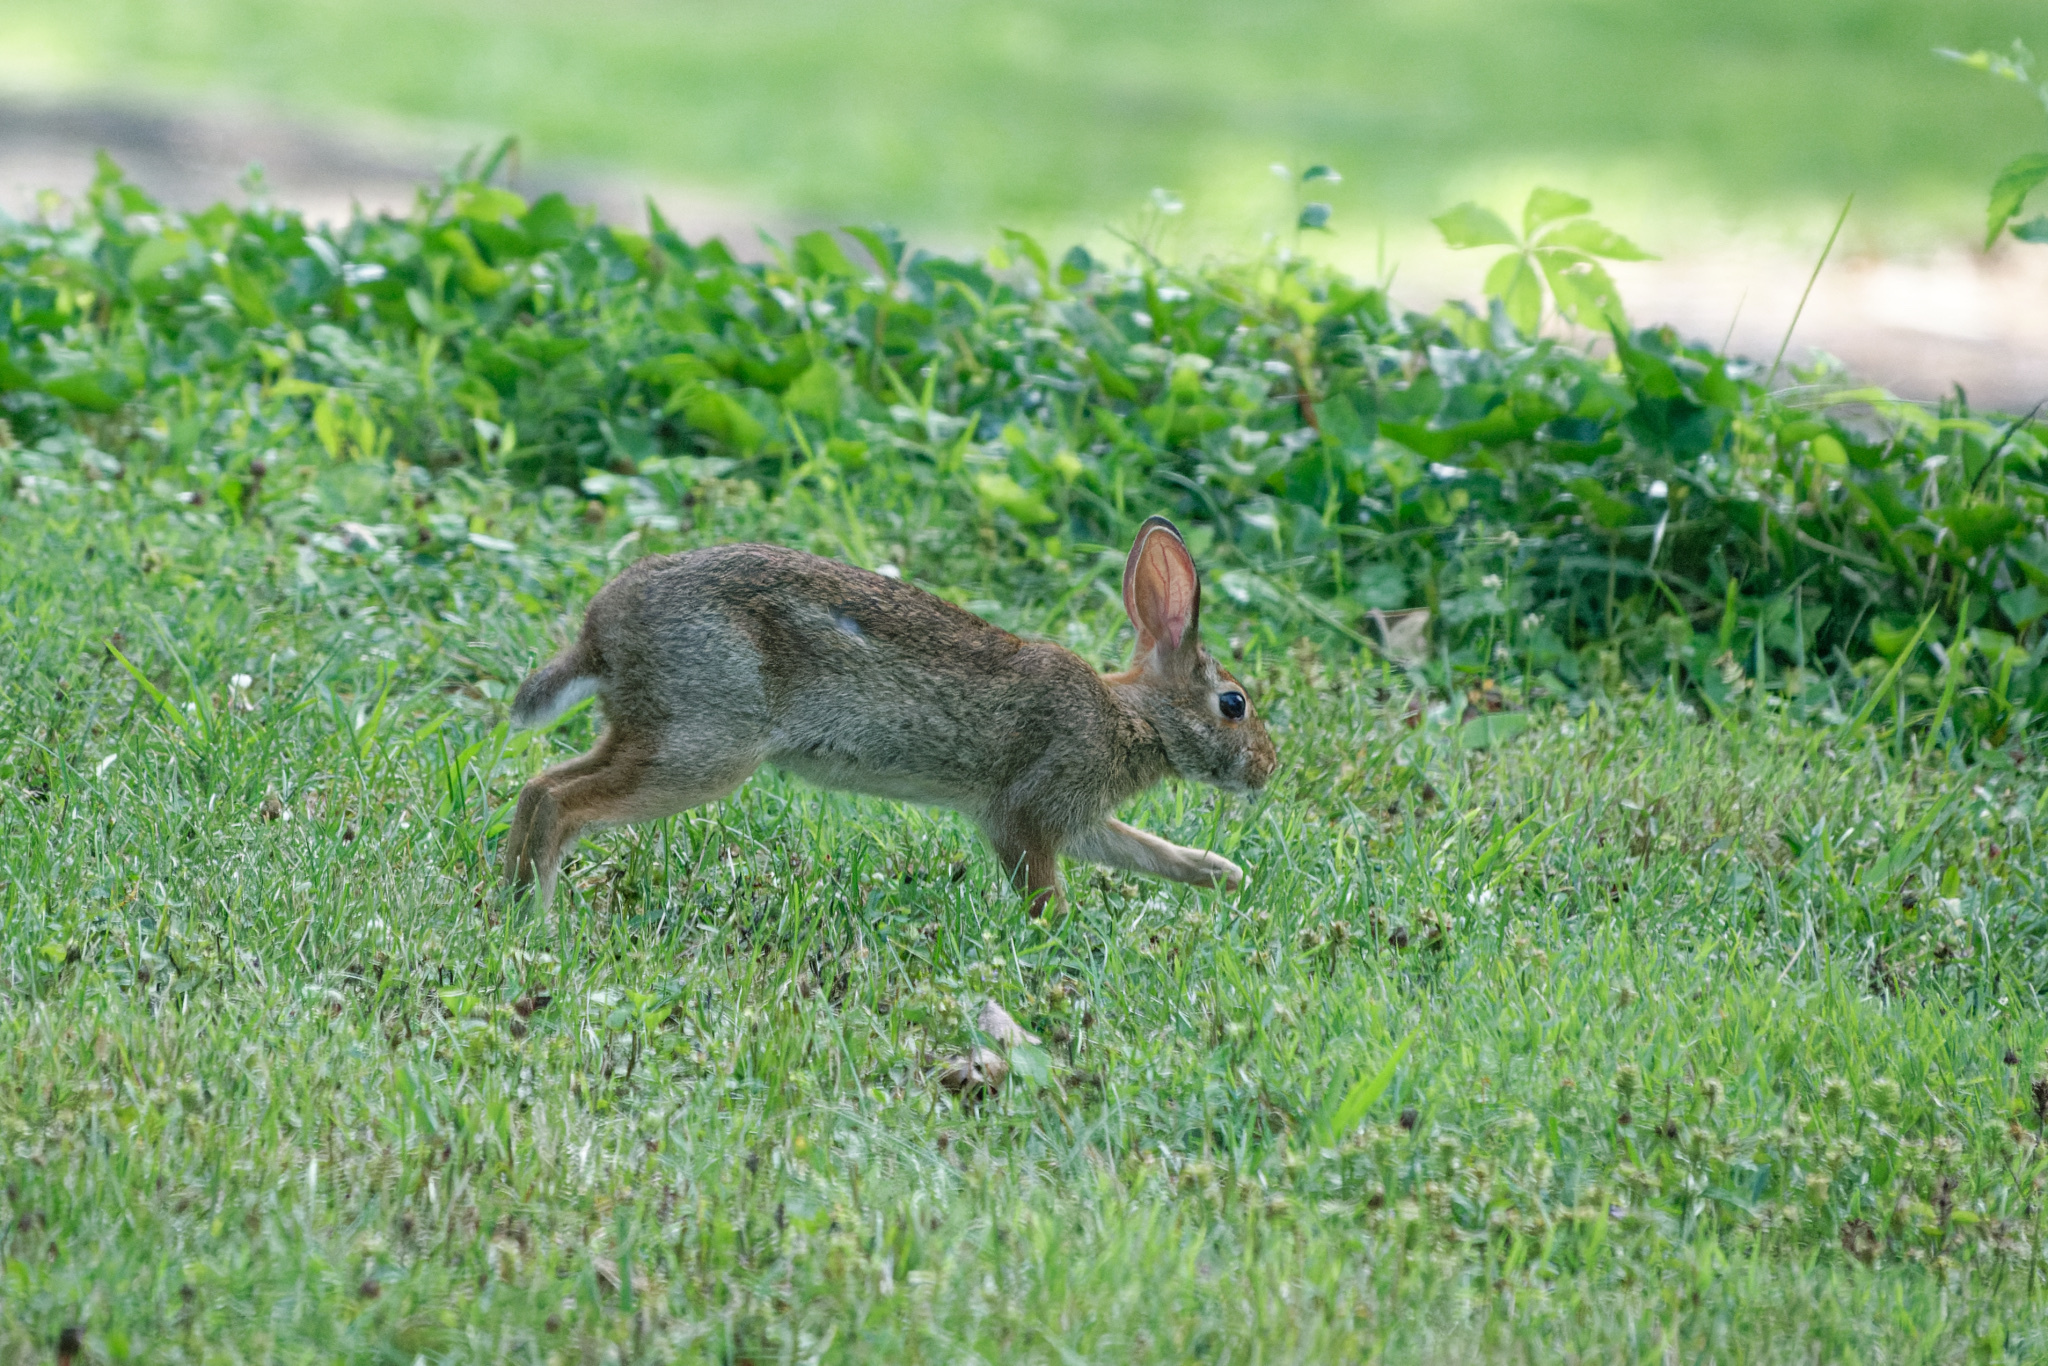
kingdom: Animalia
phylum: Chordata
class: Mammalia
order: Lagomorpha
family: Leporidae
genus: Sylvilagus
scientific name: Sylvilagus floridanus
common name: Eastern cottontail
